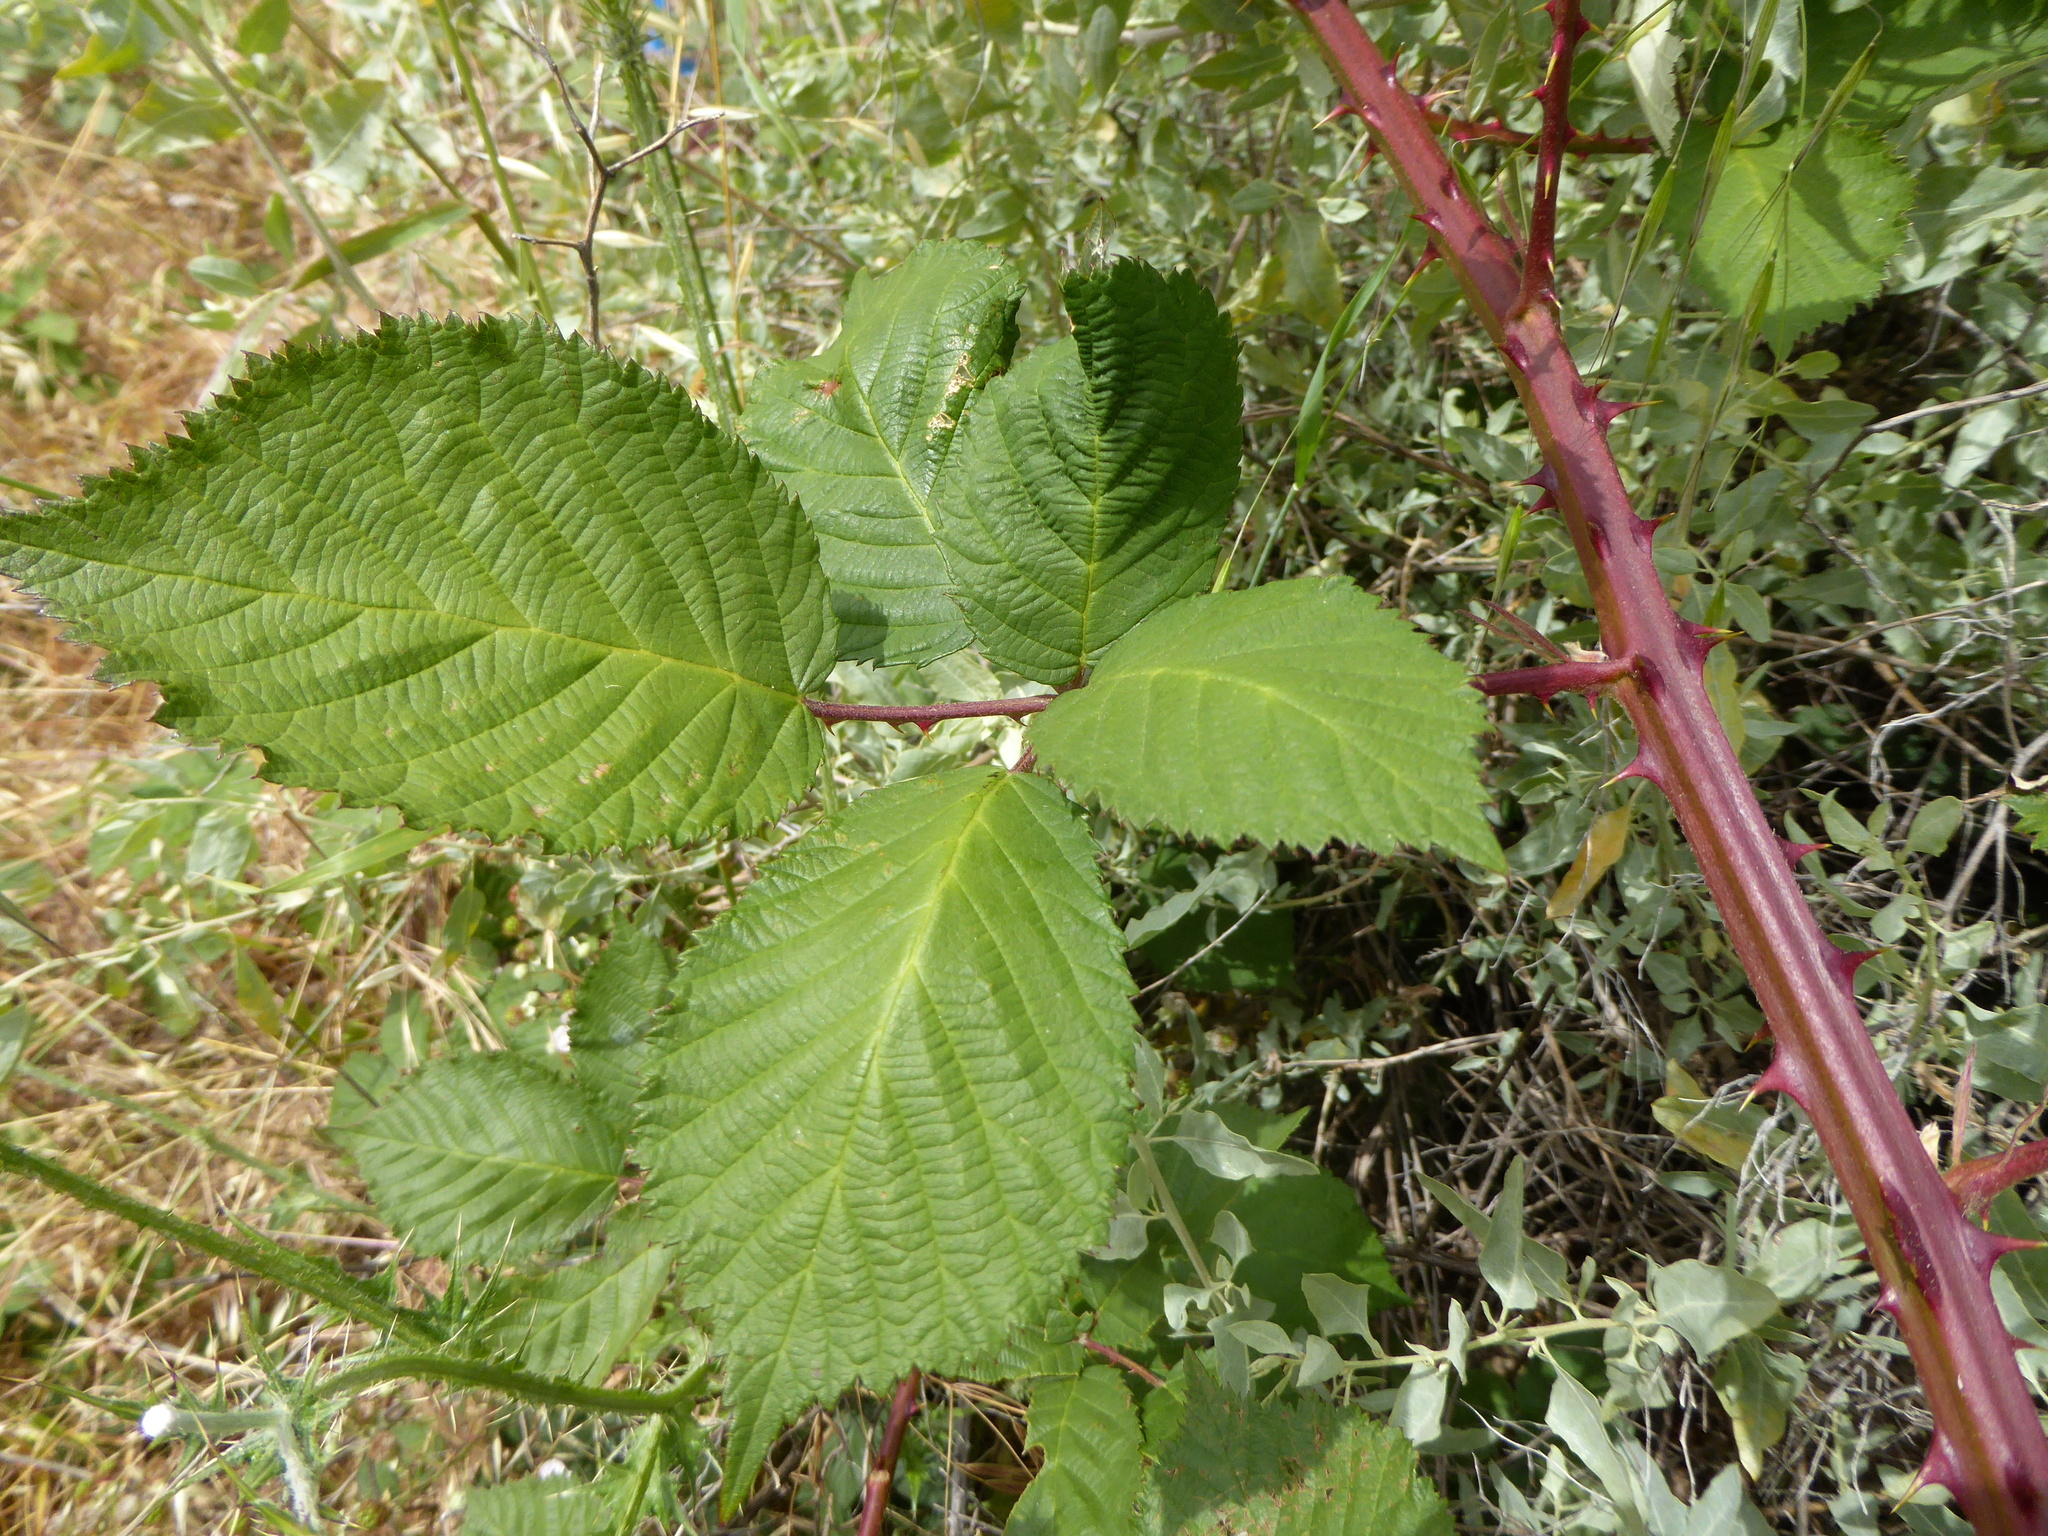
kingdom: Plantae
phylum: Tracheophyta
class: Magnoliopsida
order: Rosales
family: Rosaceae
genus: Rubus
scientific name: Rubus armeniacus
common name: Himalayan blackberry
